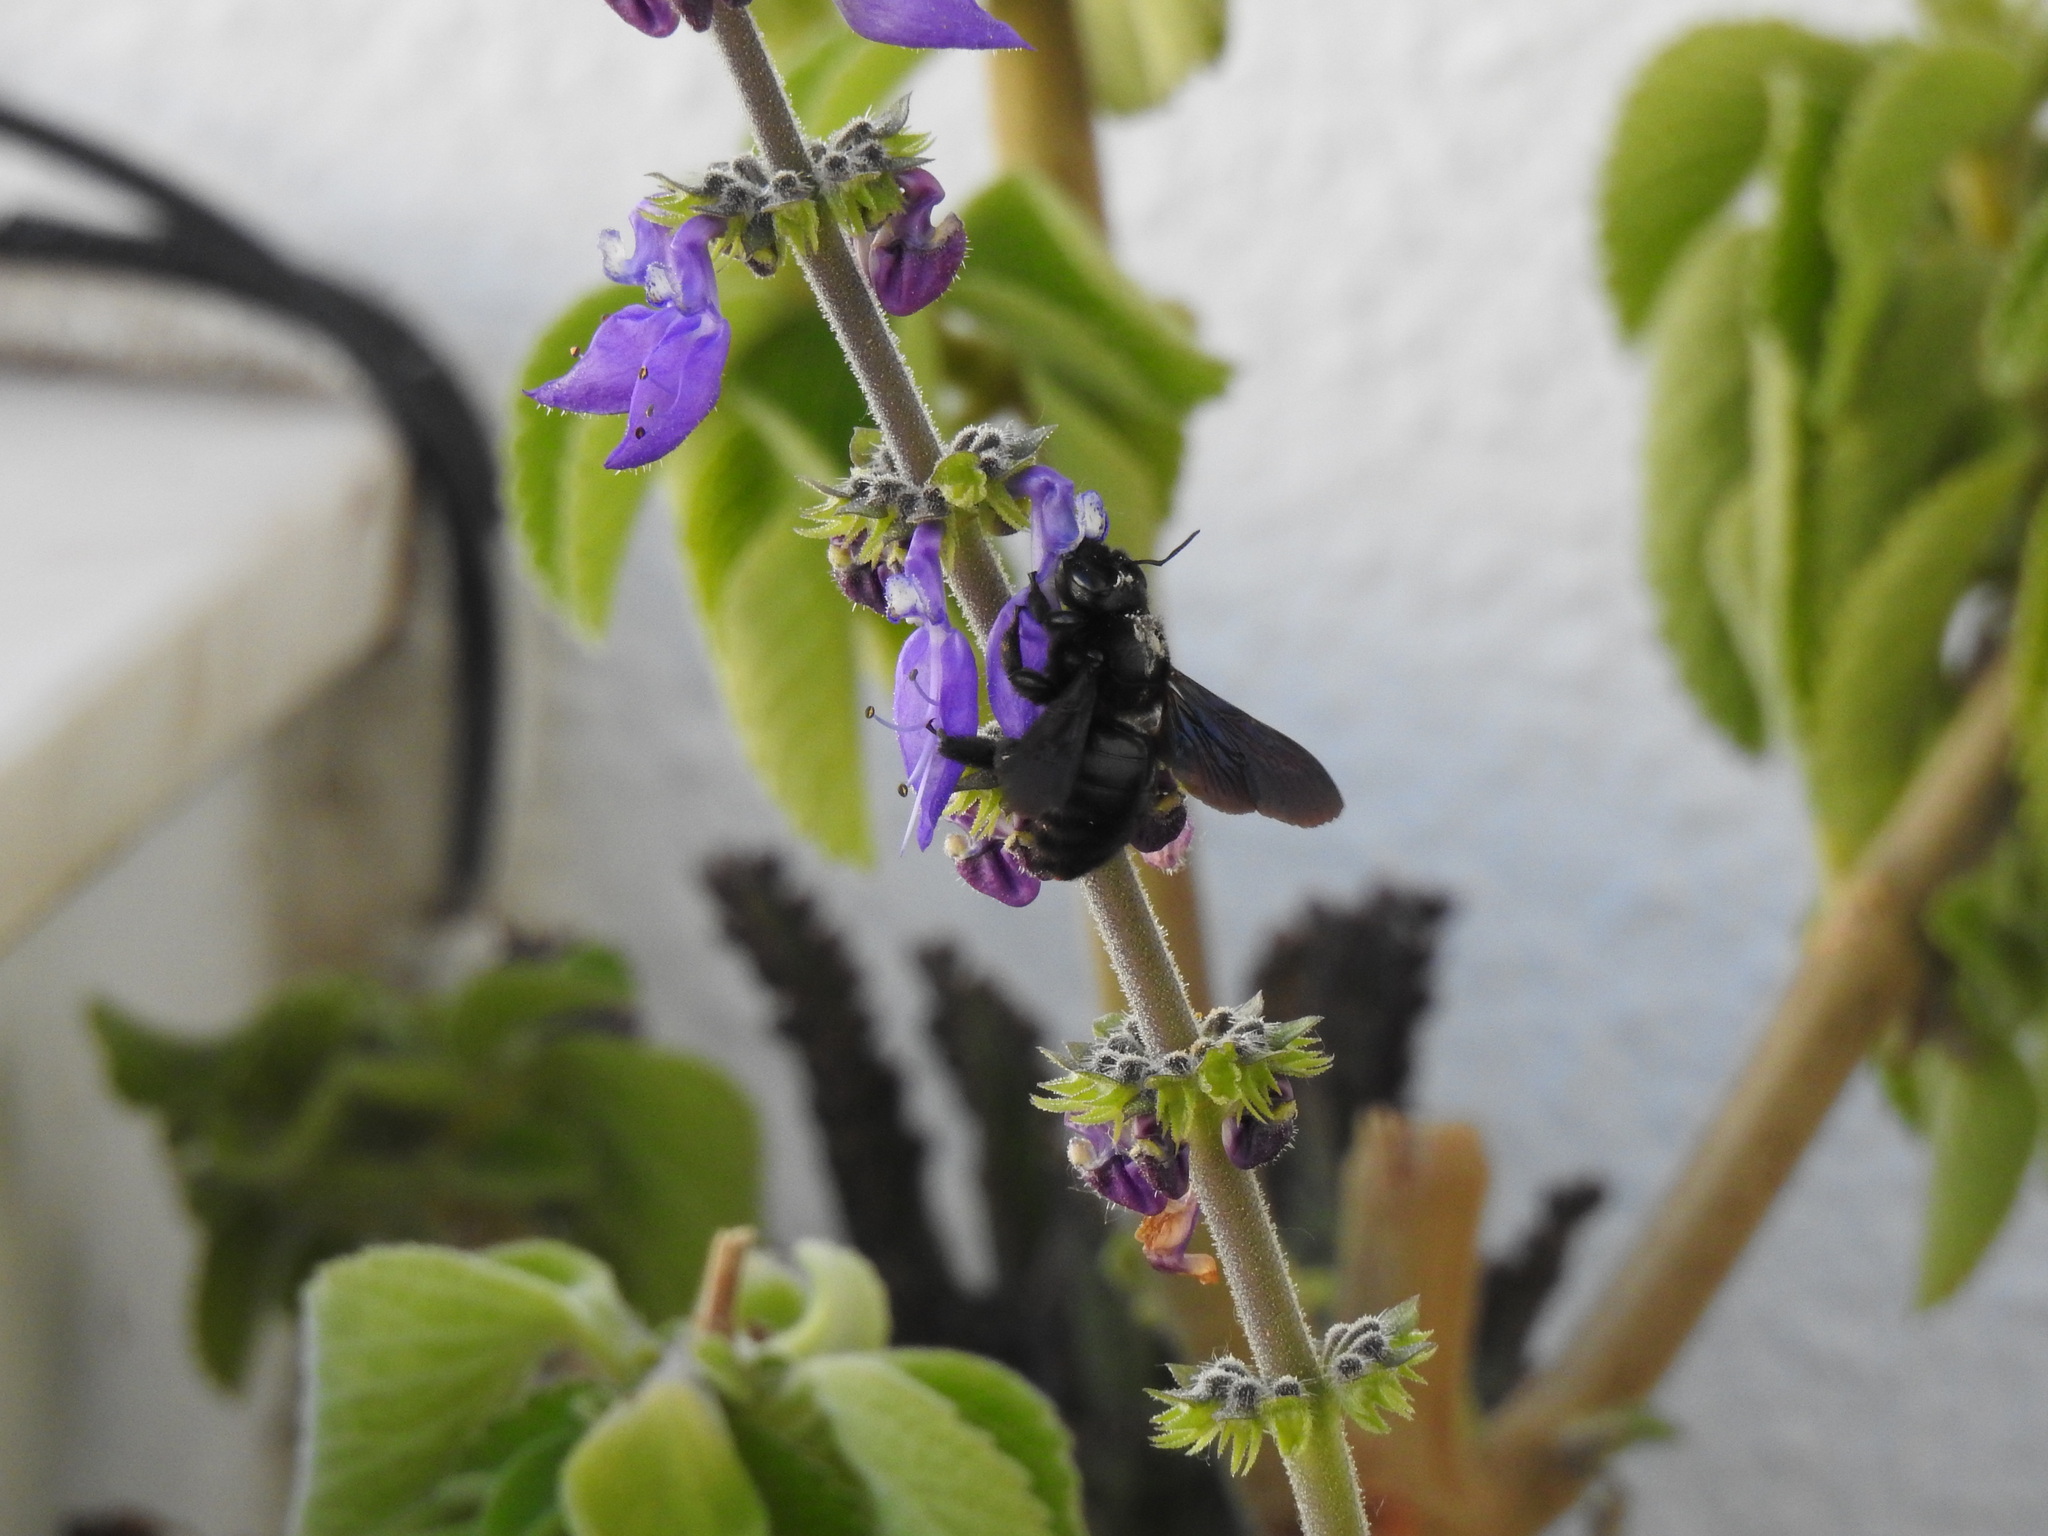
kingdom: Animalia
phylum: Arthropoda
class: Insecta
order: Hymenoptera
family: Apidae
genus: Xylocopa
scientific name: Xylocopa violacea
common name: Violet carpenter bee
